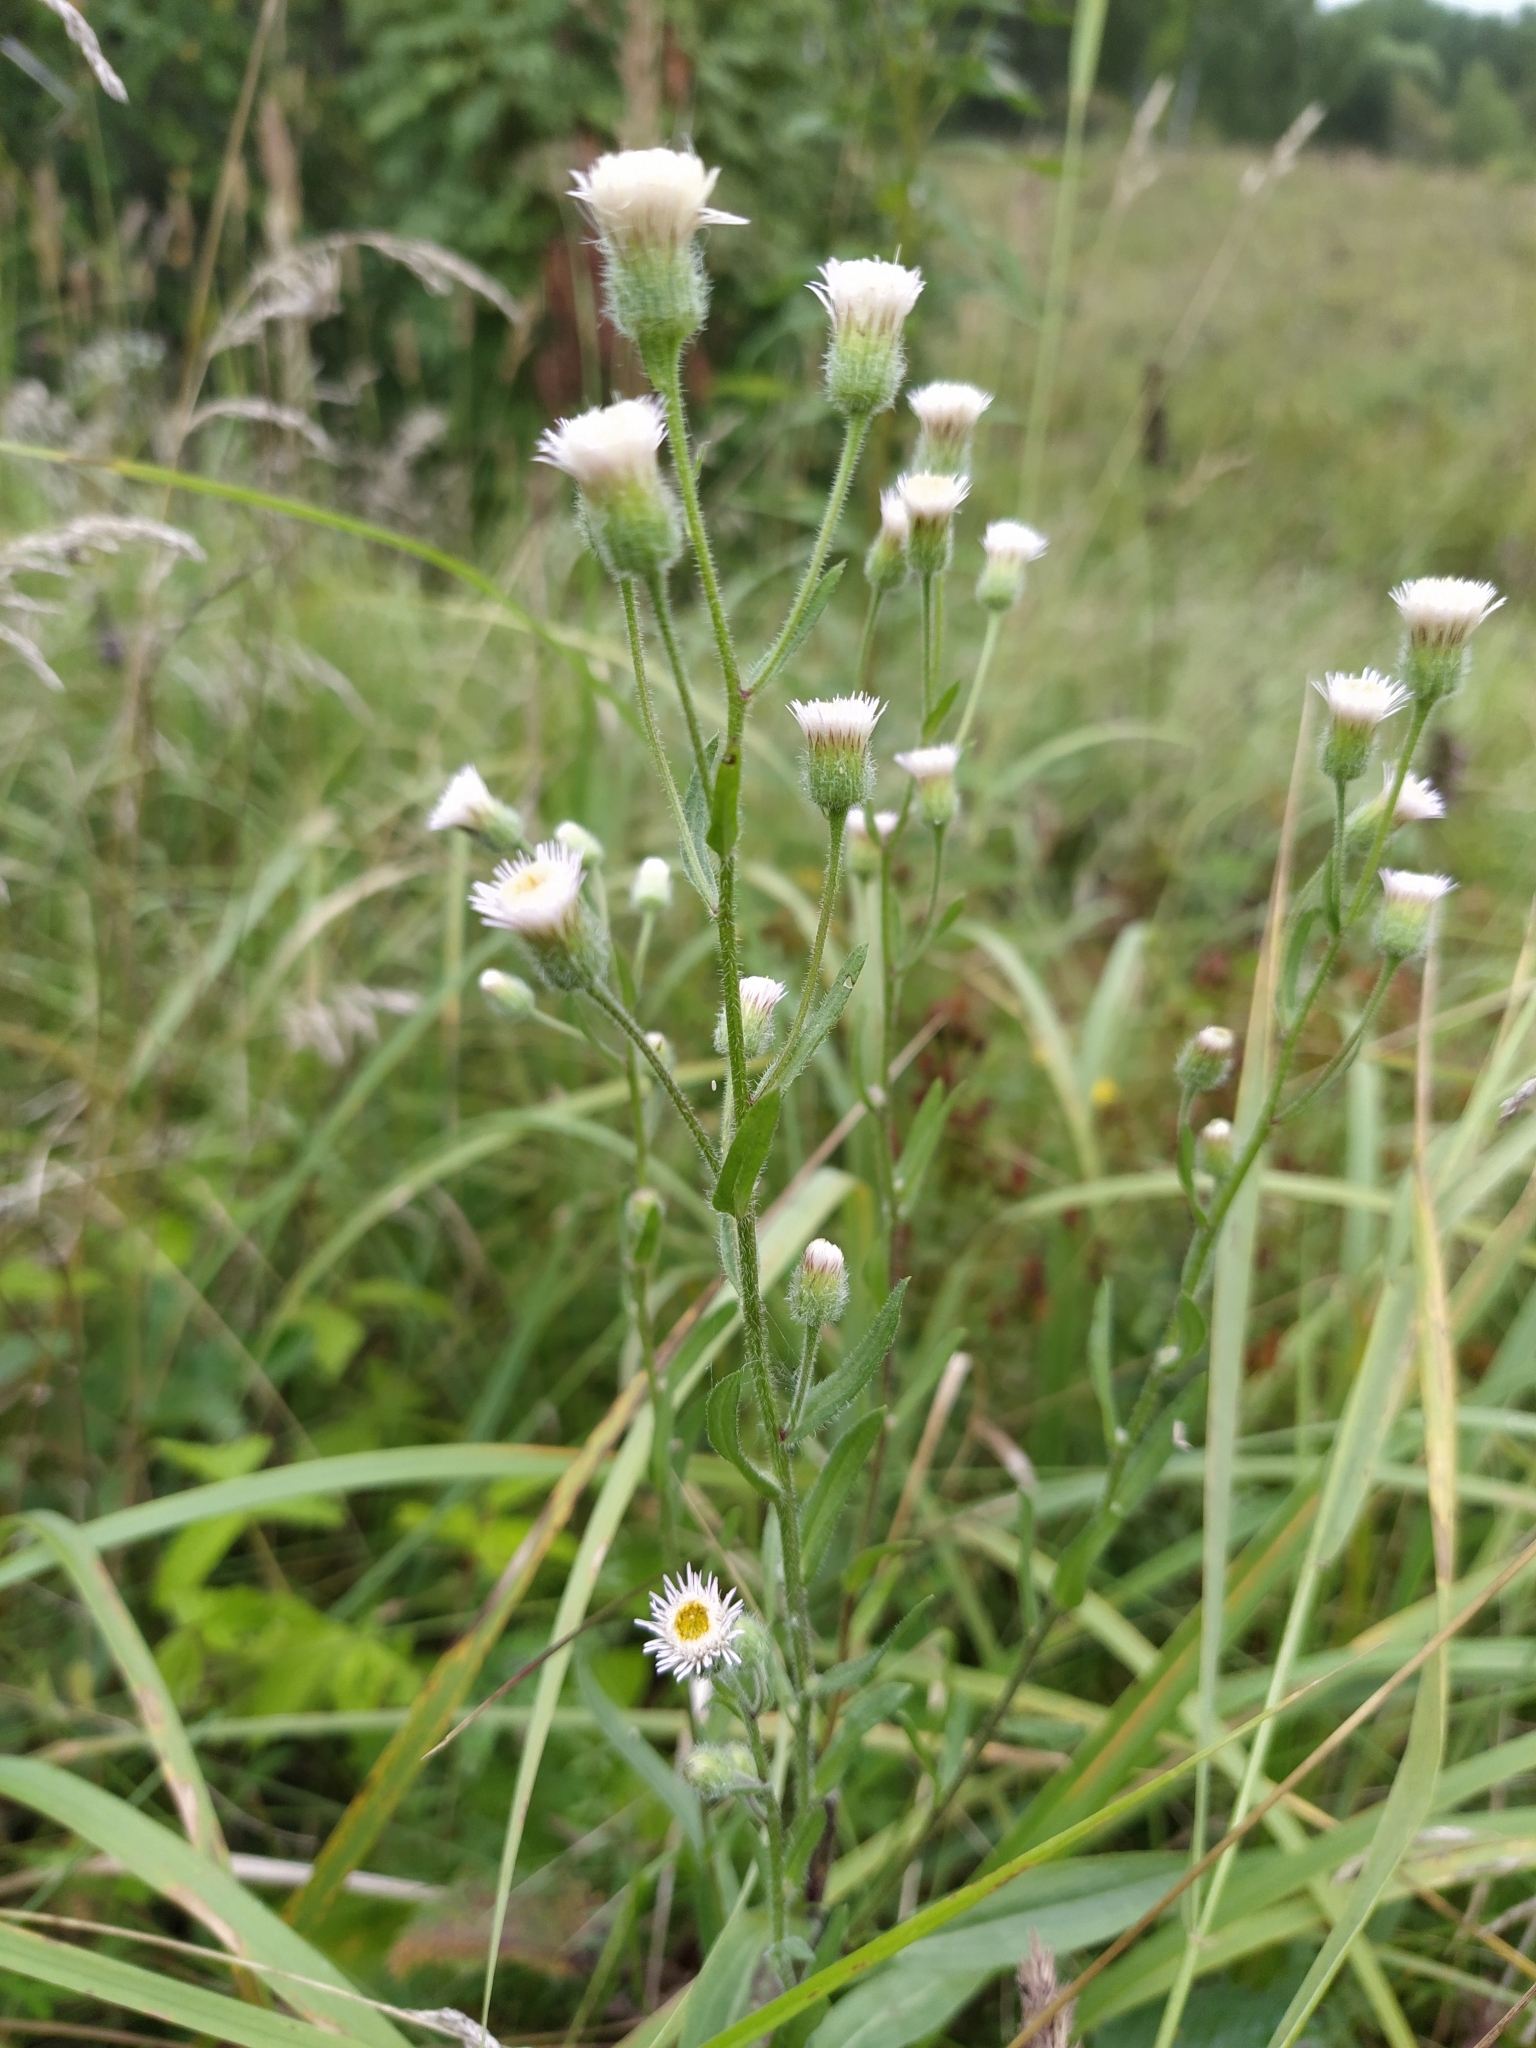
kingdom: Plantae
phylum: Tracheophyta
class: Magnoliopsida
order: Asterales
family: Asteraceae
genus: Erigeron
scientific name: Erigeron acris
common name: Blue fleabane
